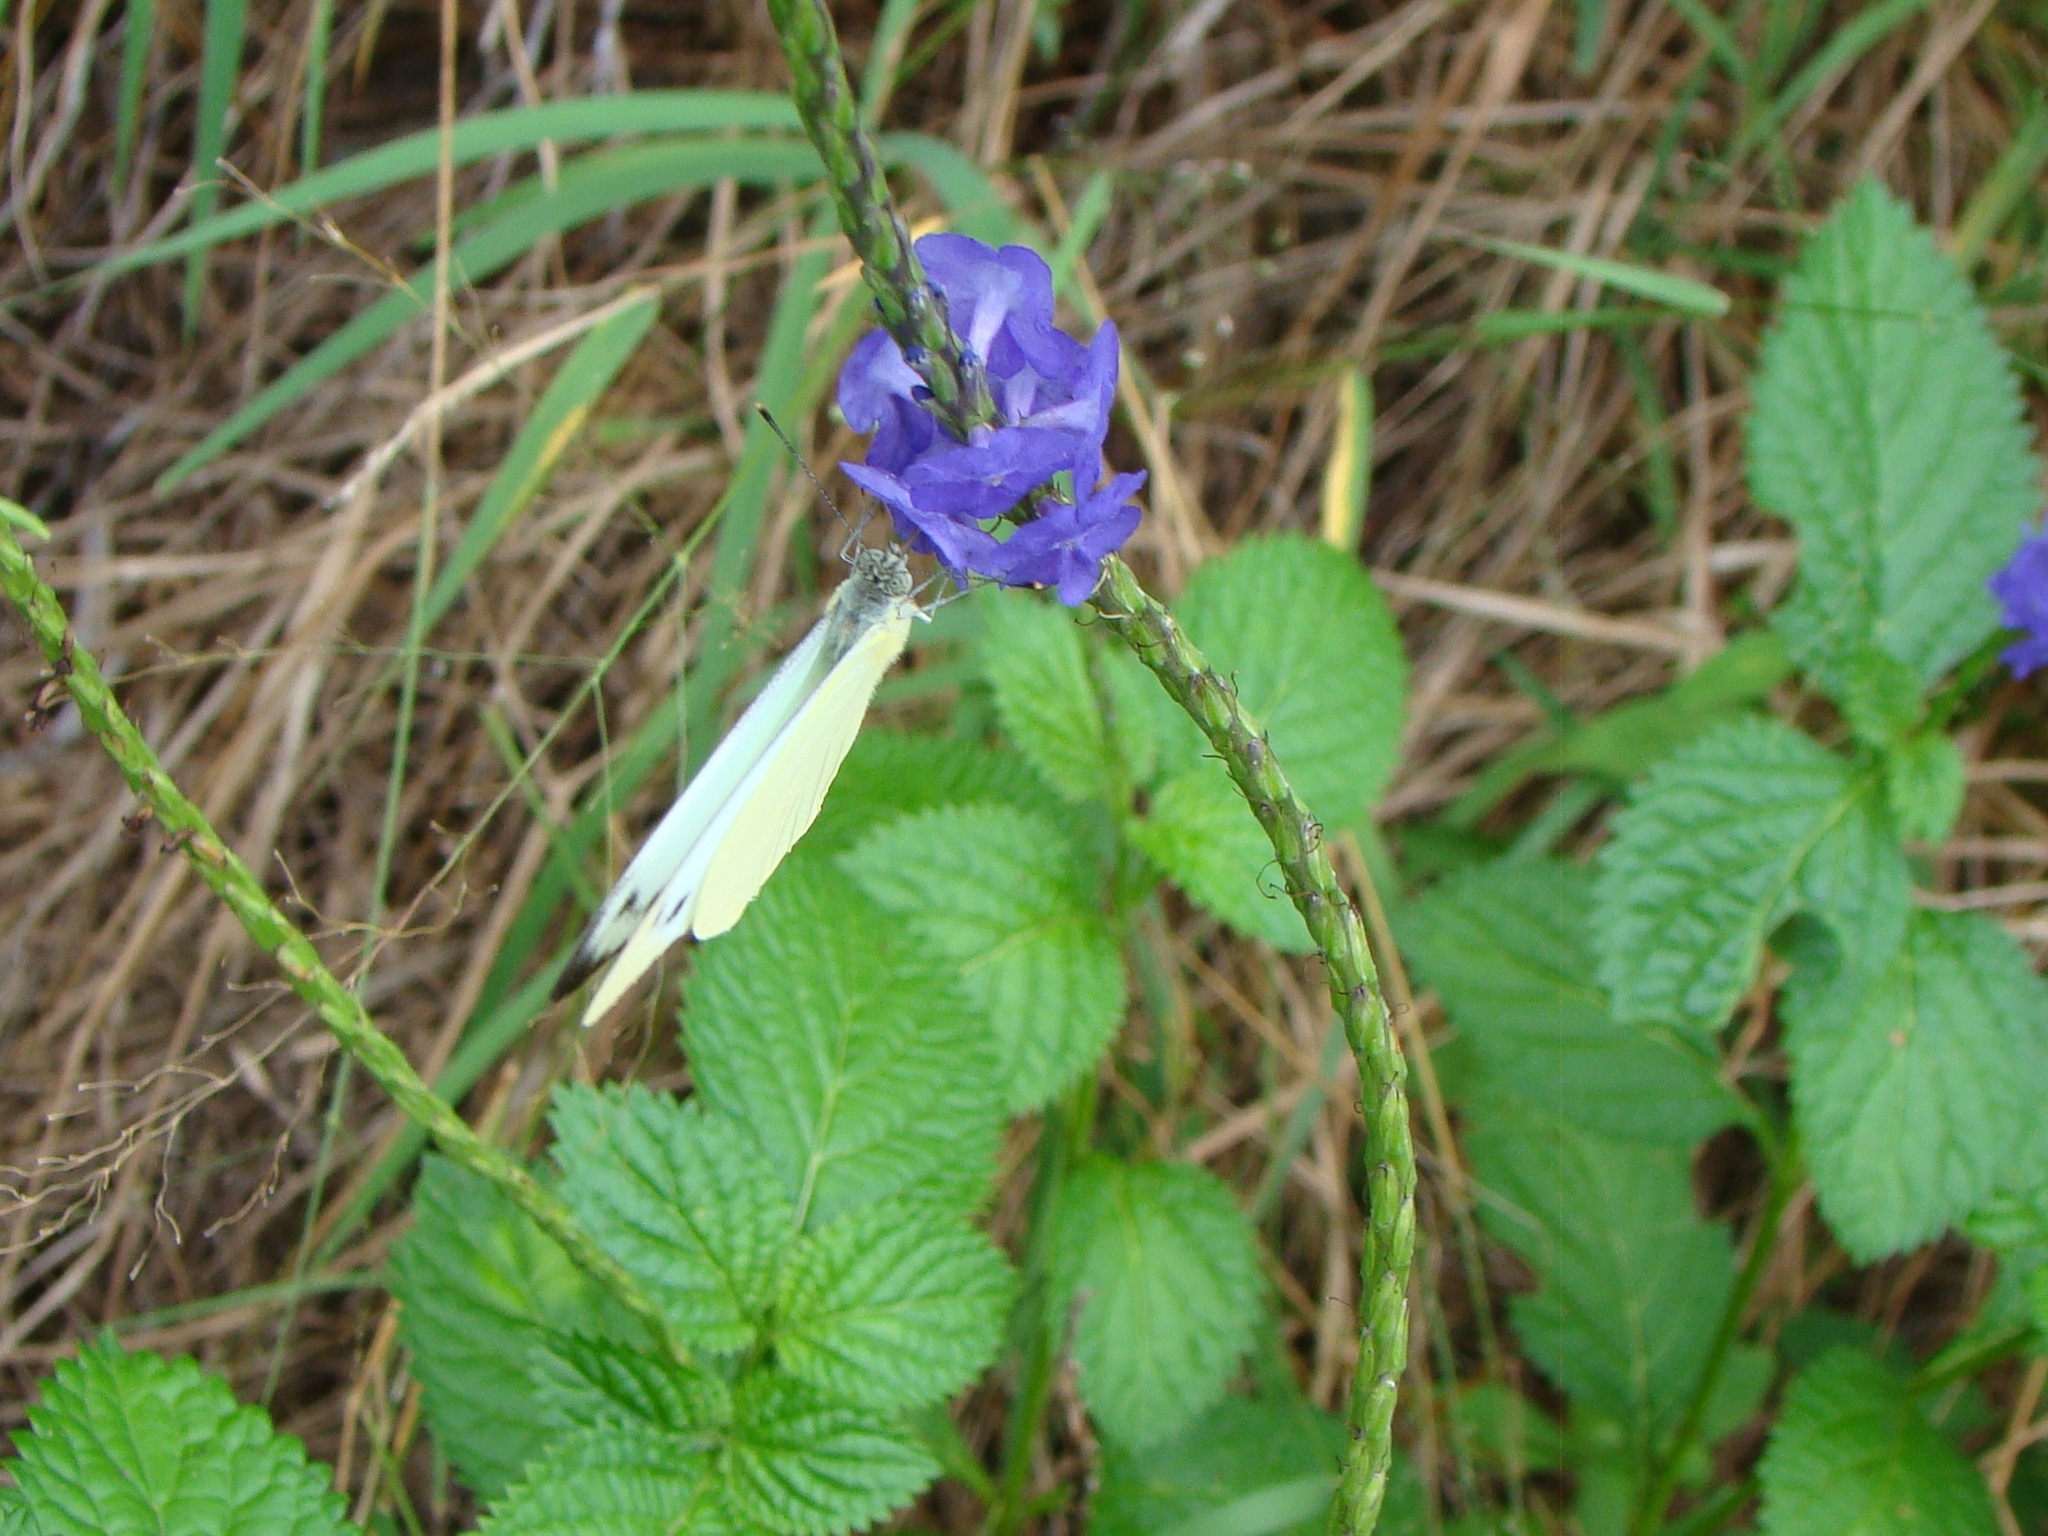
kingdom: Animalia
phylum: Arthropoda
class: Insecta
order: Lepidoptera
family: Pieridae
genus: Appias
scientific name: Appias paulina
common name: Ceylon lesser albatross
